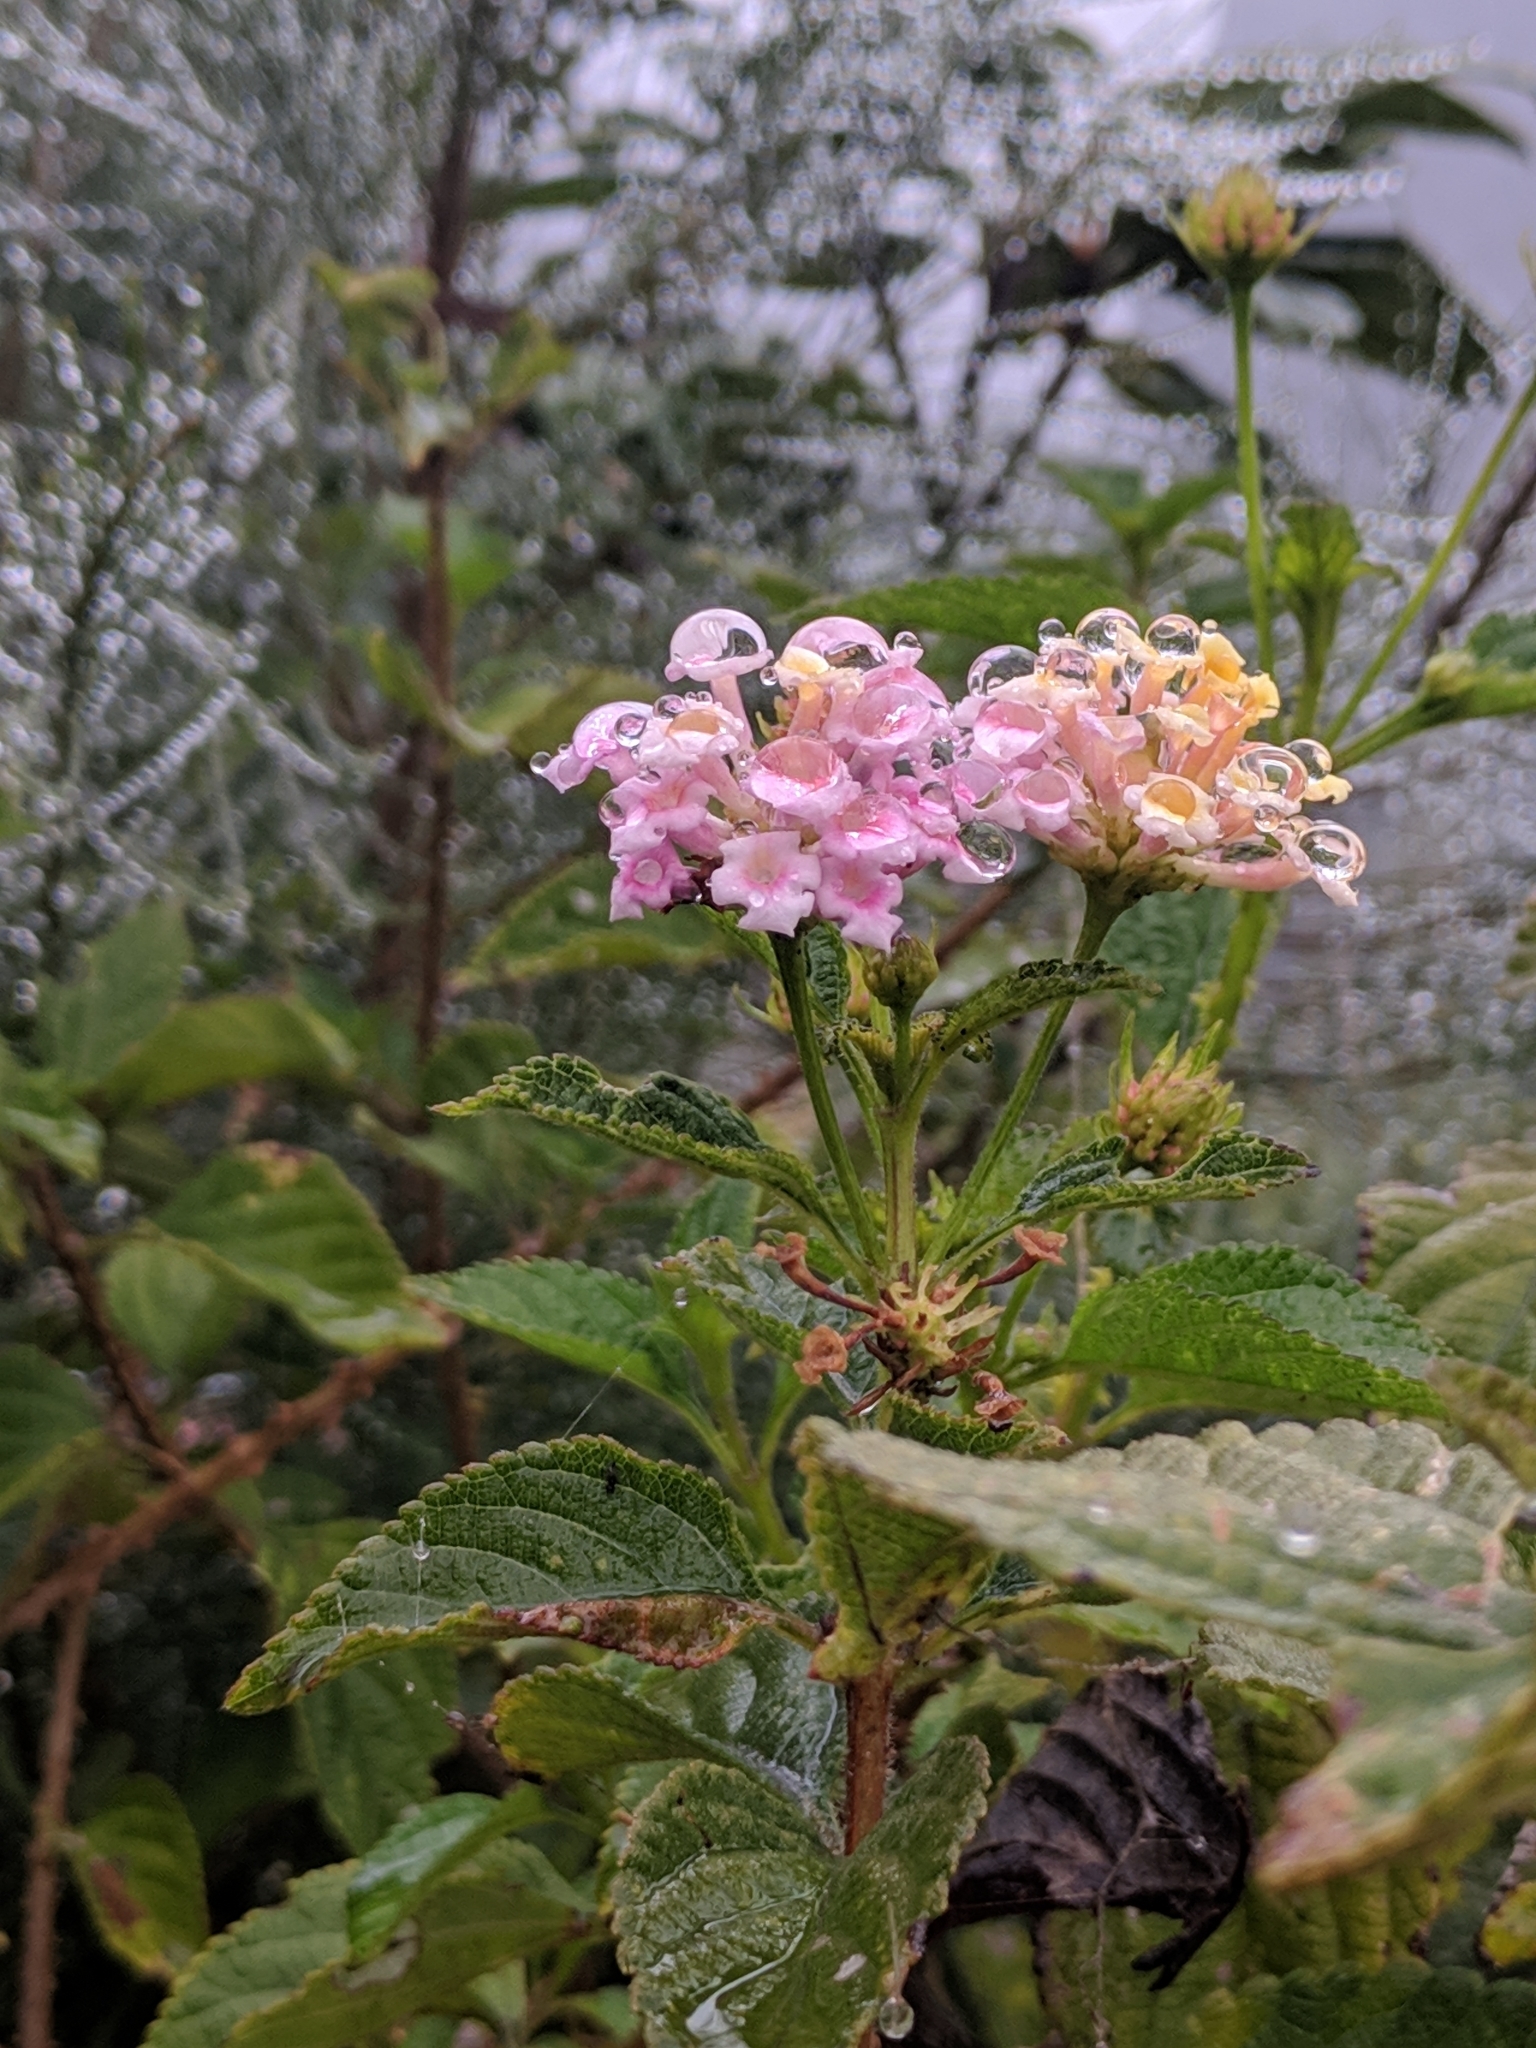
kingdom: Plantae
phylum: Tracheophyta
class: Magnoliopsida
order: Lamiales
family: Verbenaceae
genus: Lantana
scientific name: Lantana camara
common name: Lantana
